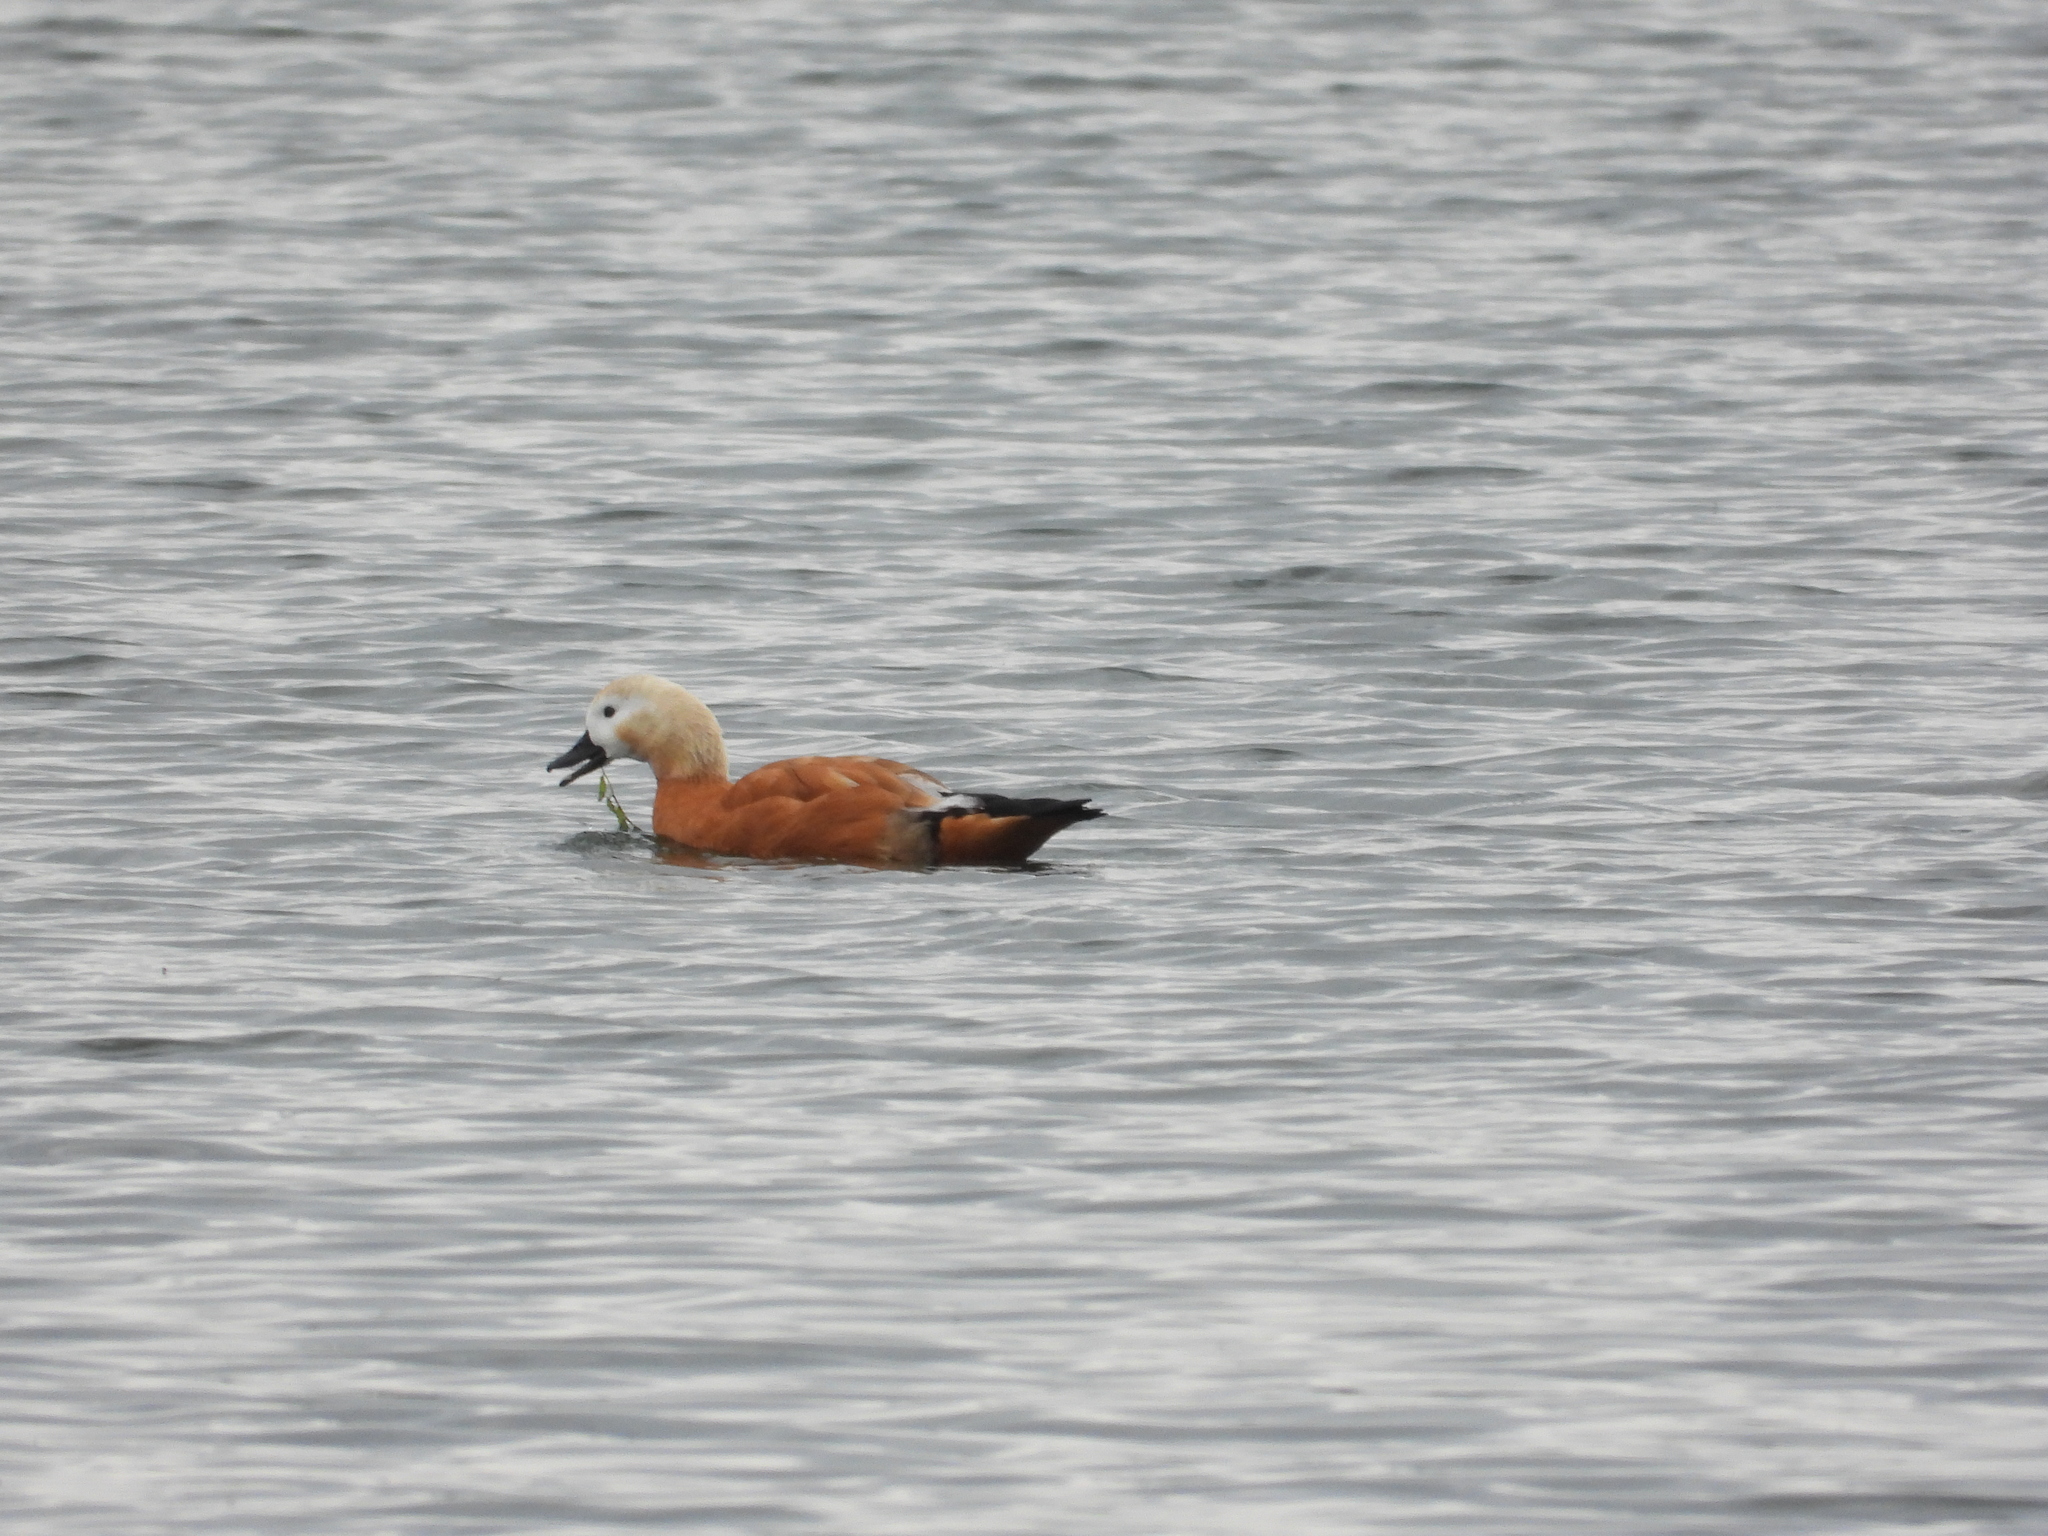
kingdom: Animalia
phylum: Chordata
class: Aves
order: Anseriformes
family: Anatidae
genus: Tadorna
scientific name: Tadorna ferruginea
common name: Ruddy shelduck
